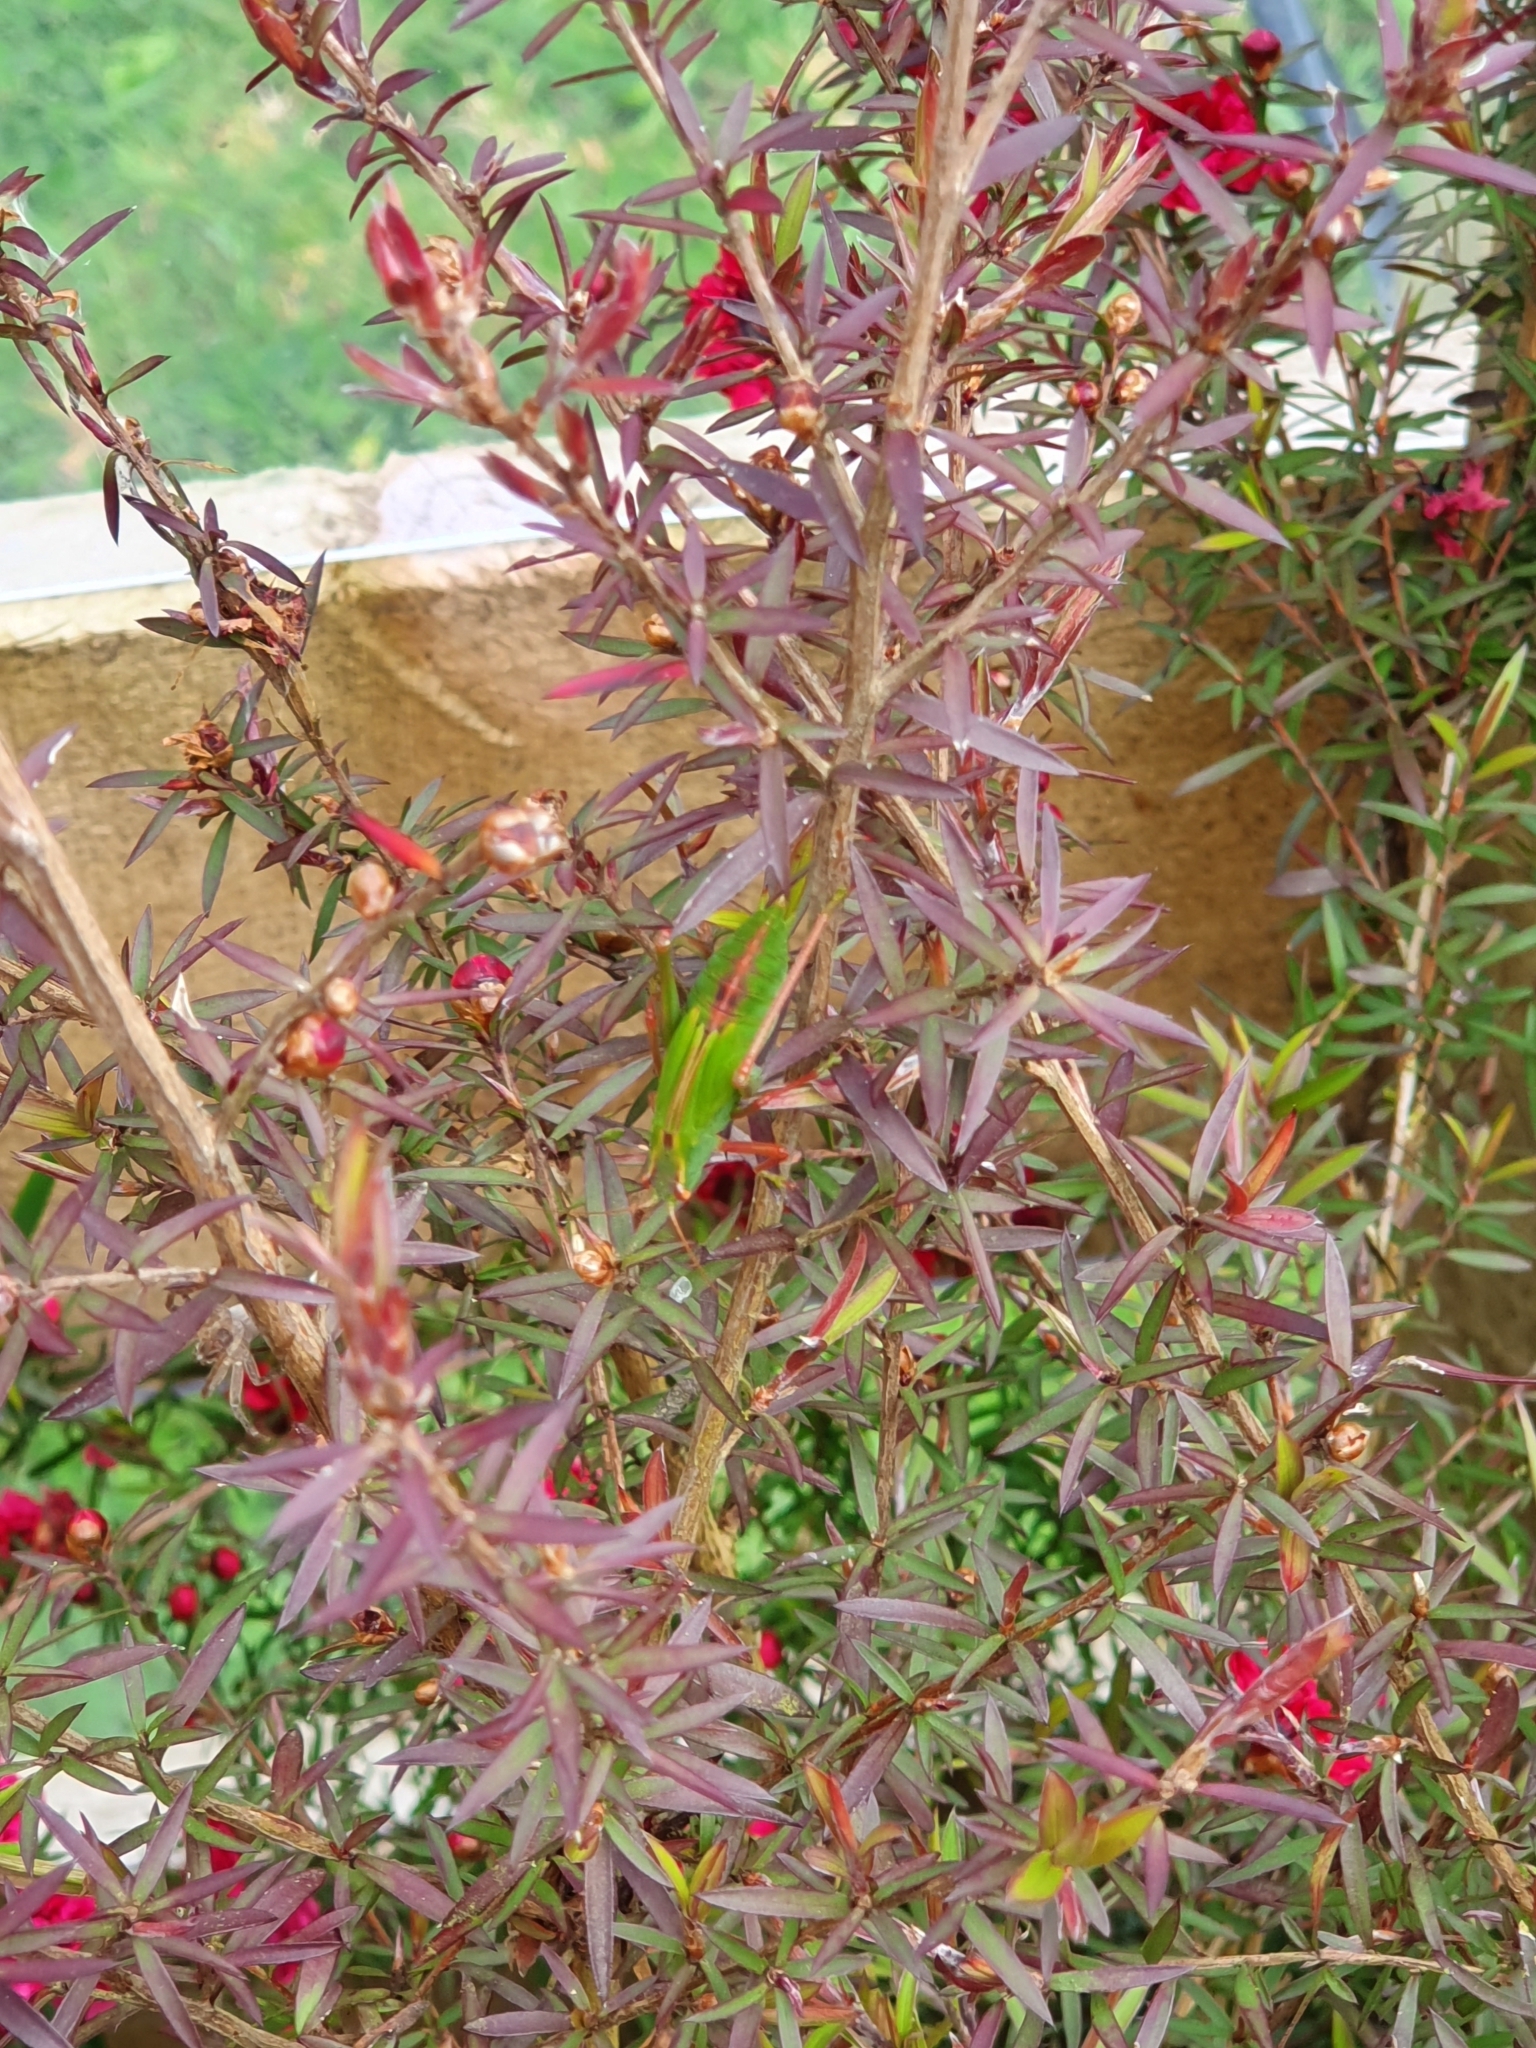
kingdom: Animalia
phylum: Arthropoda
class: Insecta
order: Orthoptera
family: Tettigoniidae
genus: Caedicia
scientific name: Caedicia simplex
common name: Common garden katydid
